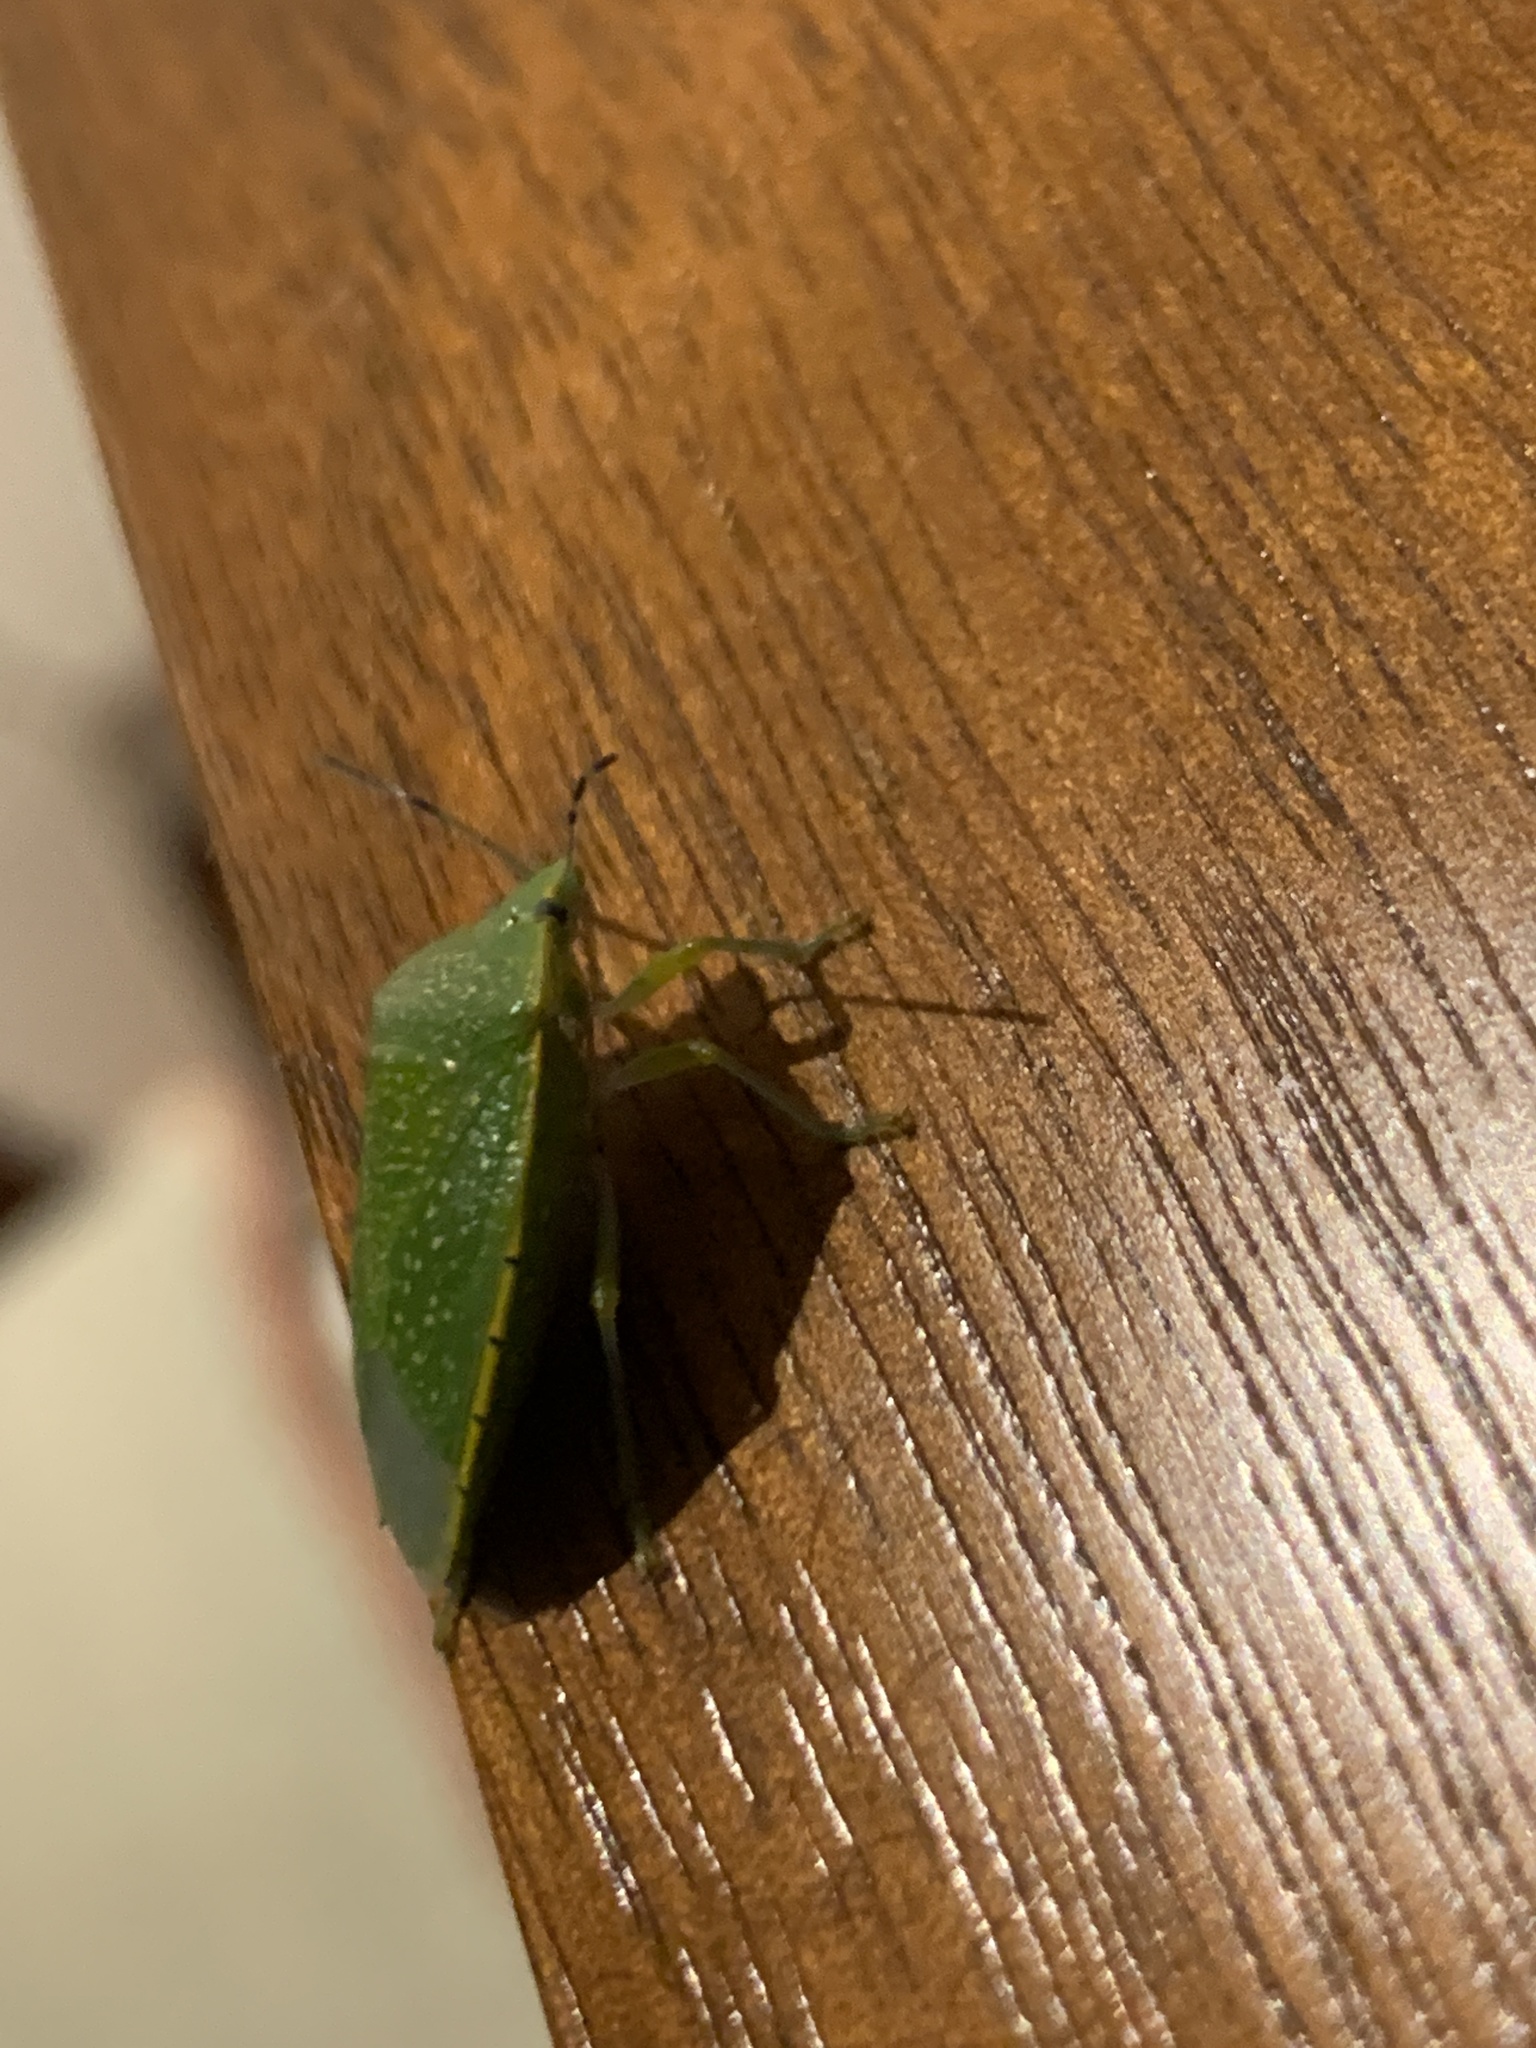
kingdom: Animalia
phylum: Arthropoda
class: Insecta
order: Hemiptera
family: Pentatomidae
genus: Chinavia
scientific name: Chinavia
